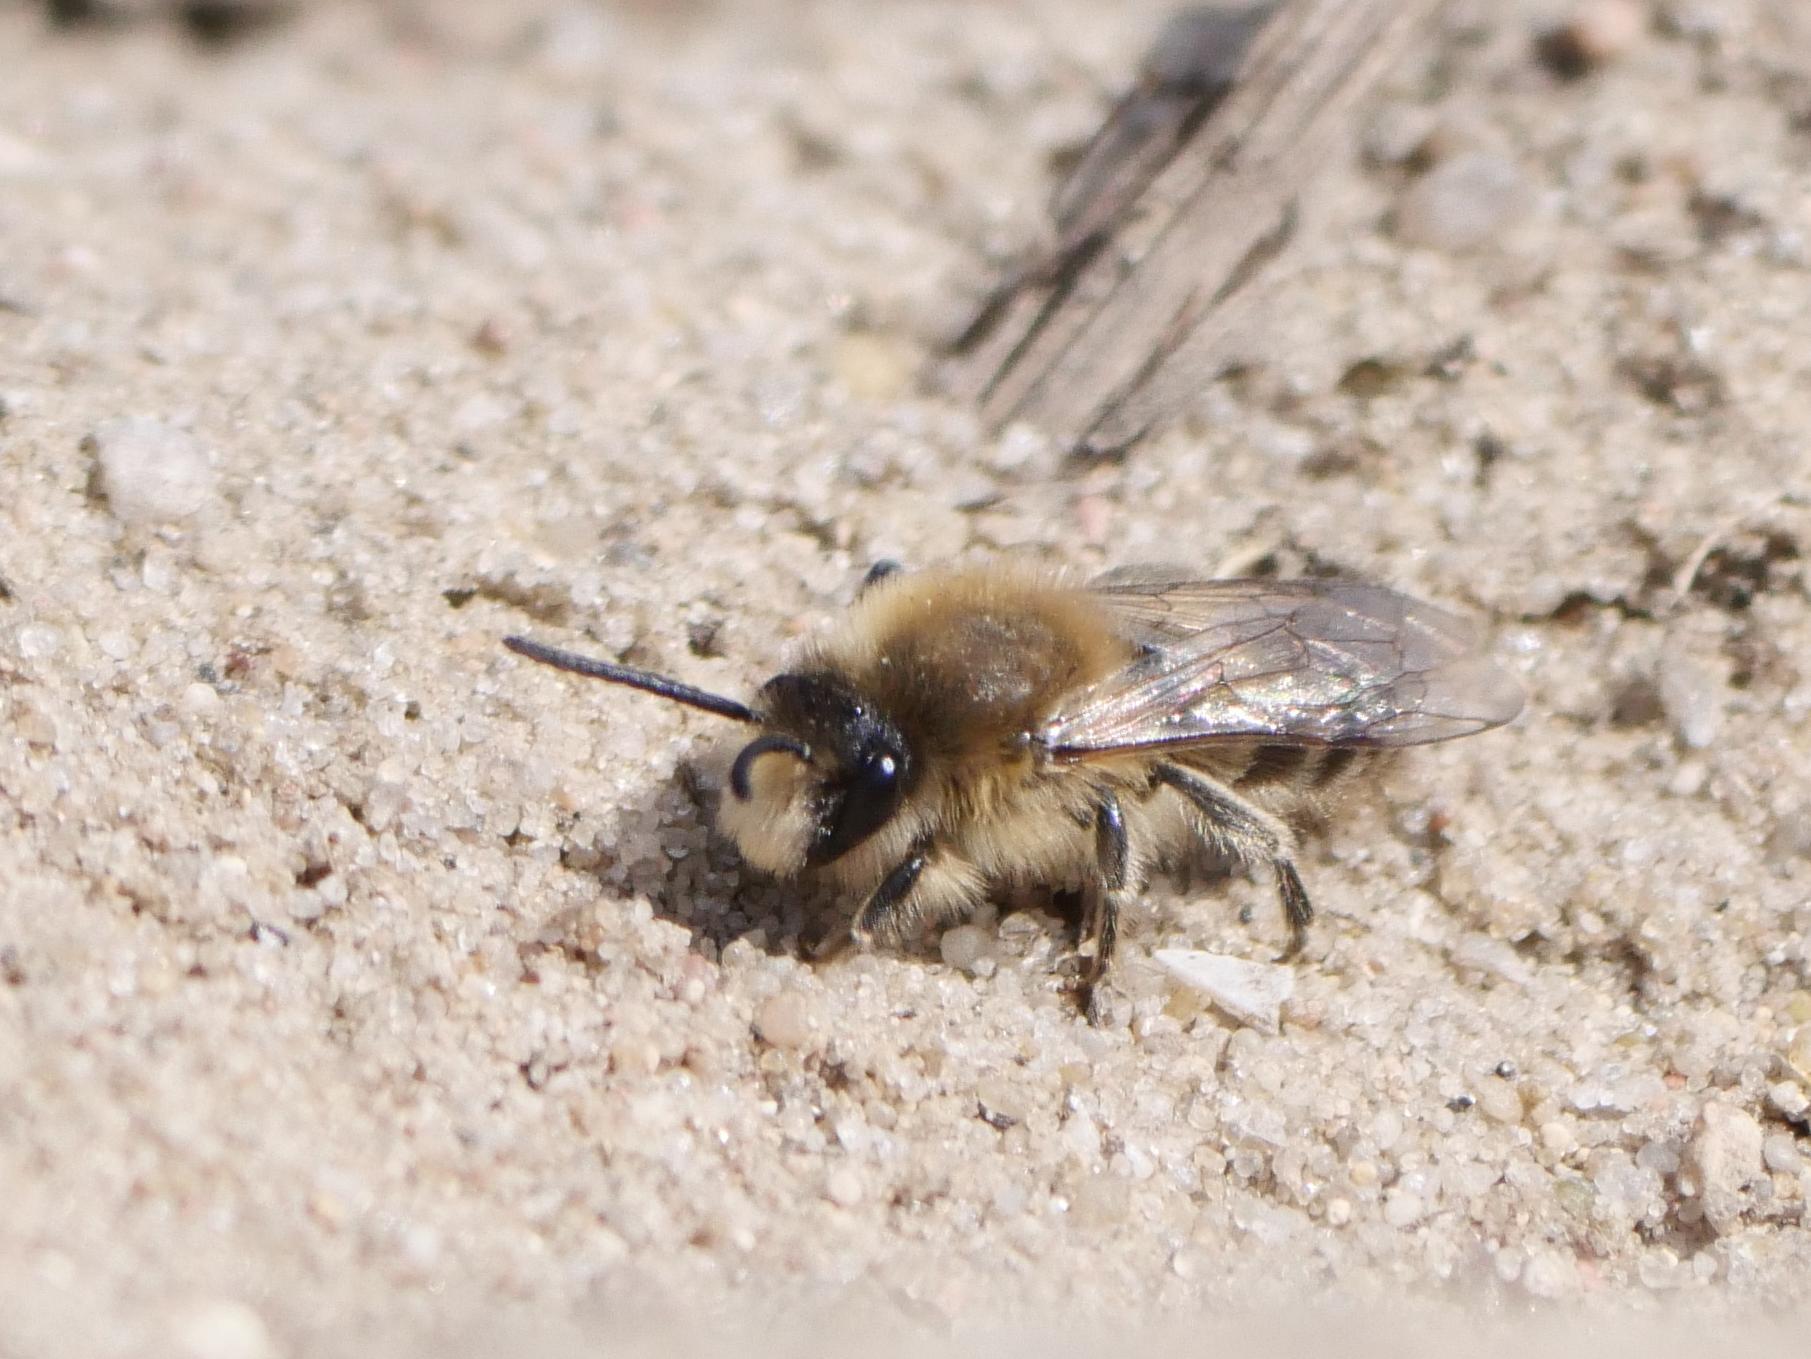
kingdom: Animalia
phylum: Arthropoda
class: Insecta
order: Hymenoptera
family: Colletidae
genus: Colletes
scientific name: Colletes cunicularius
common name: Early colletes
